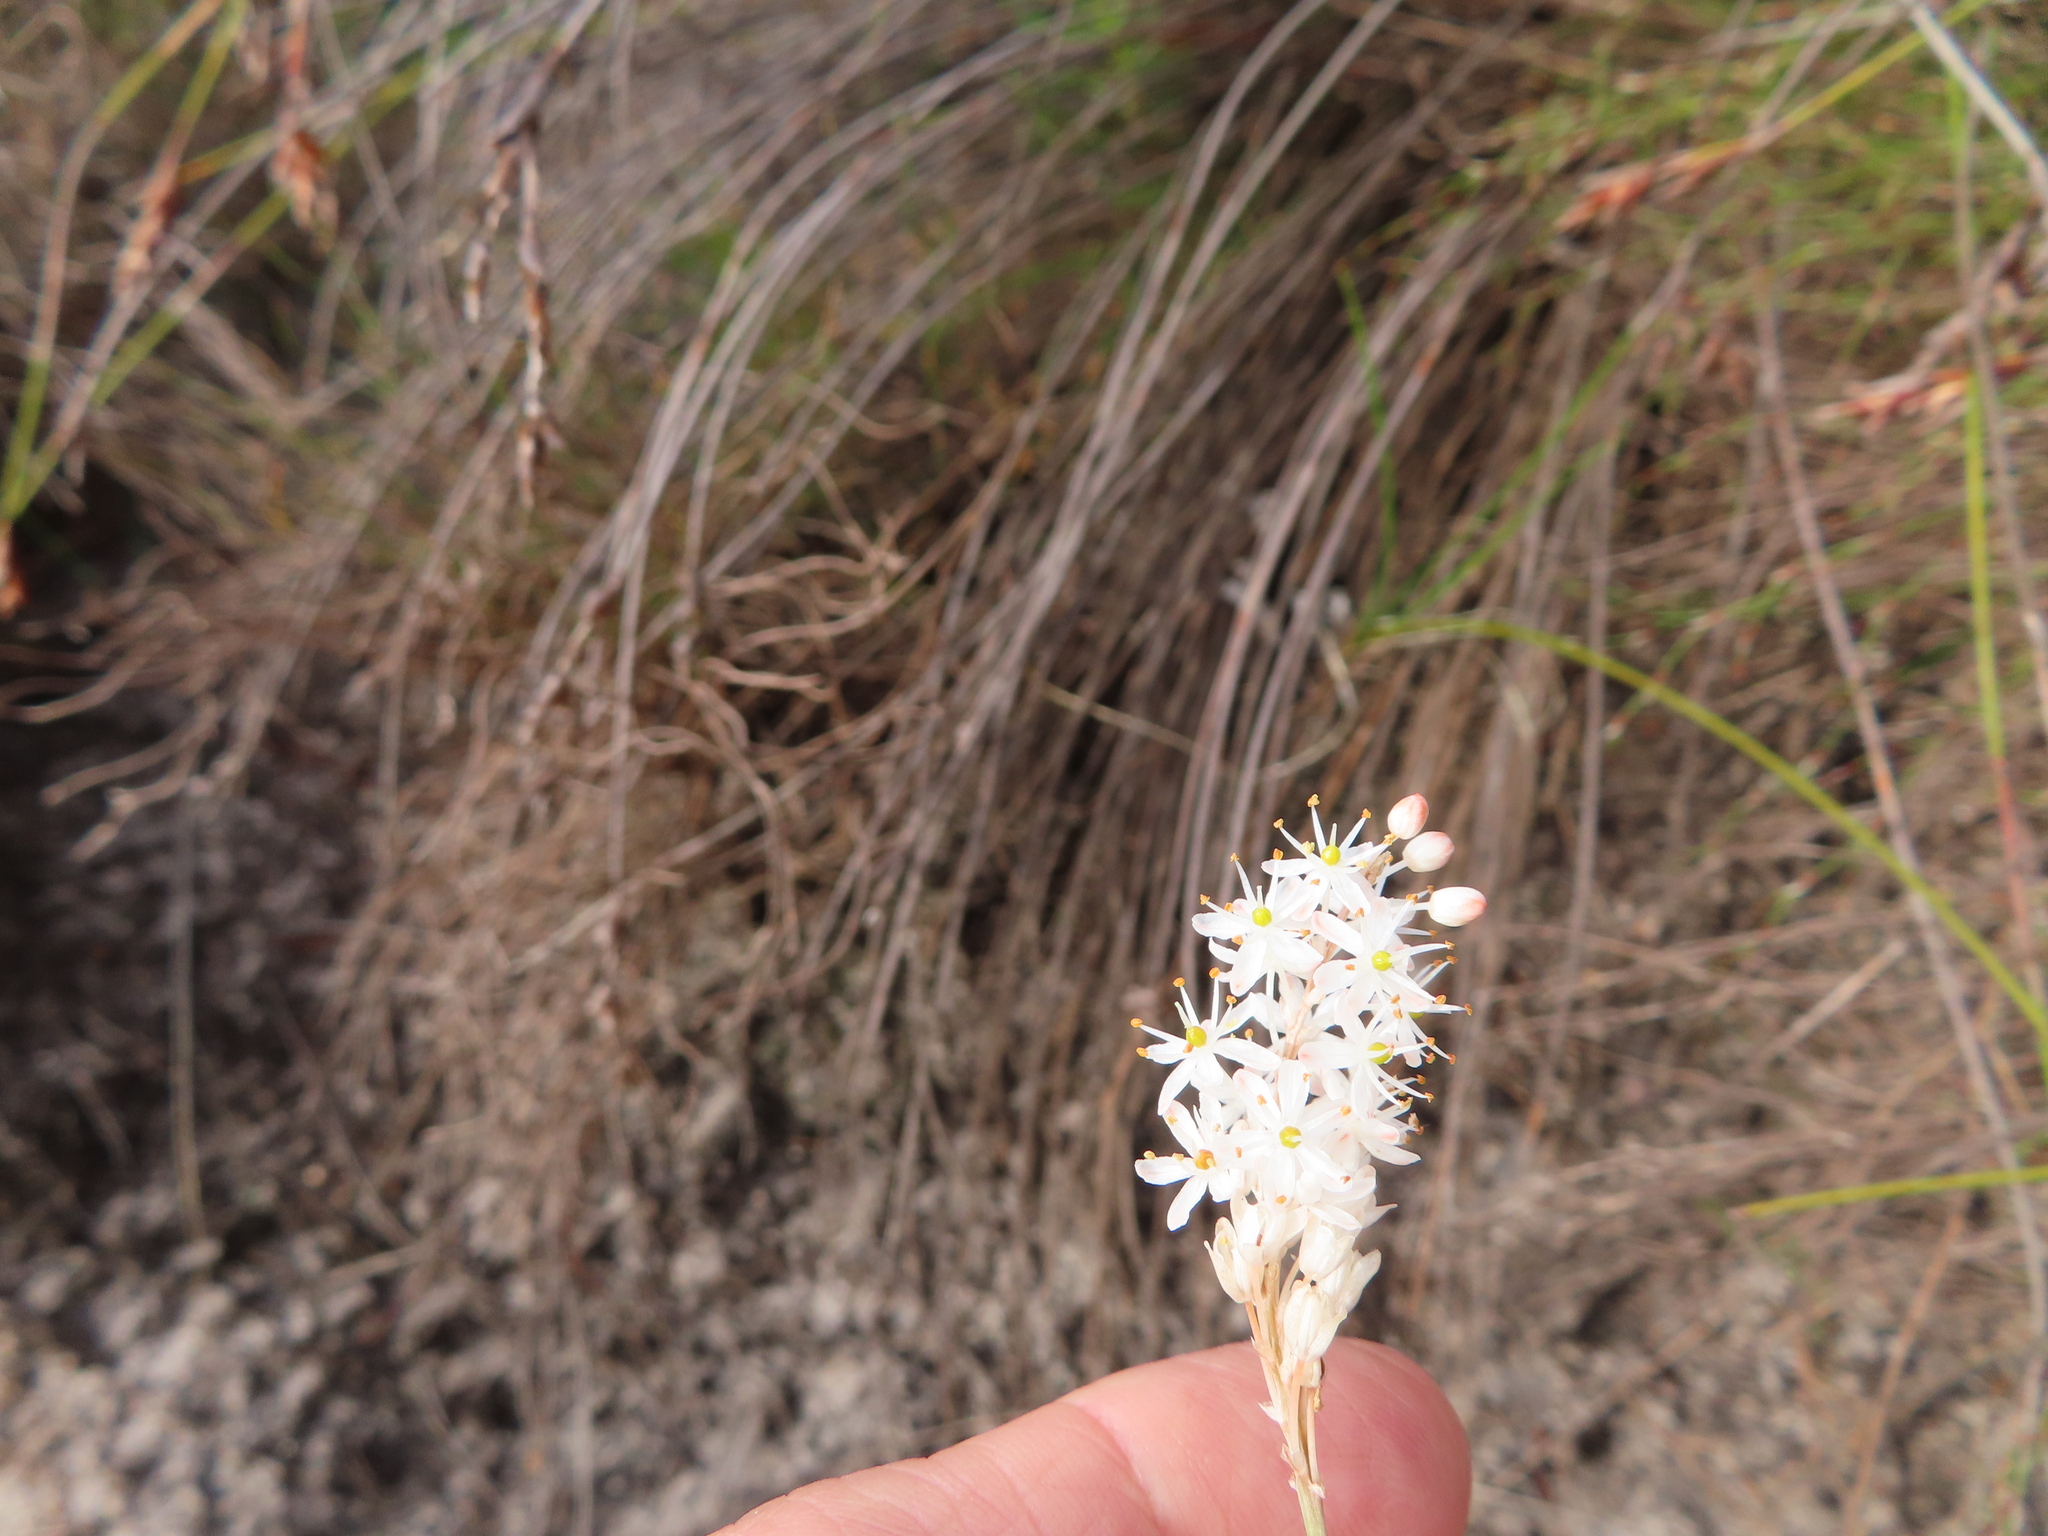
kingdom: Plantae
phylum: Tracheophyta
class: Liliopsida
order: Asparagales
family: Asphodelaceae
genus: Bulbinella
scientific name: Bulbinella trinervis
